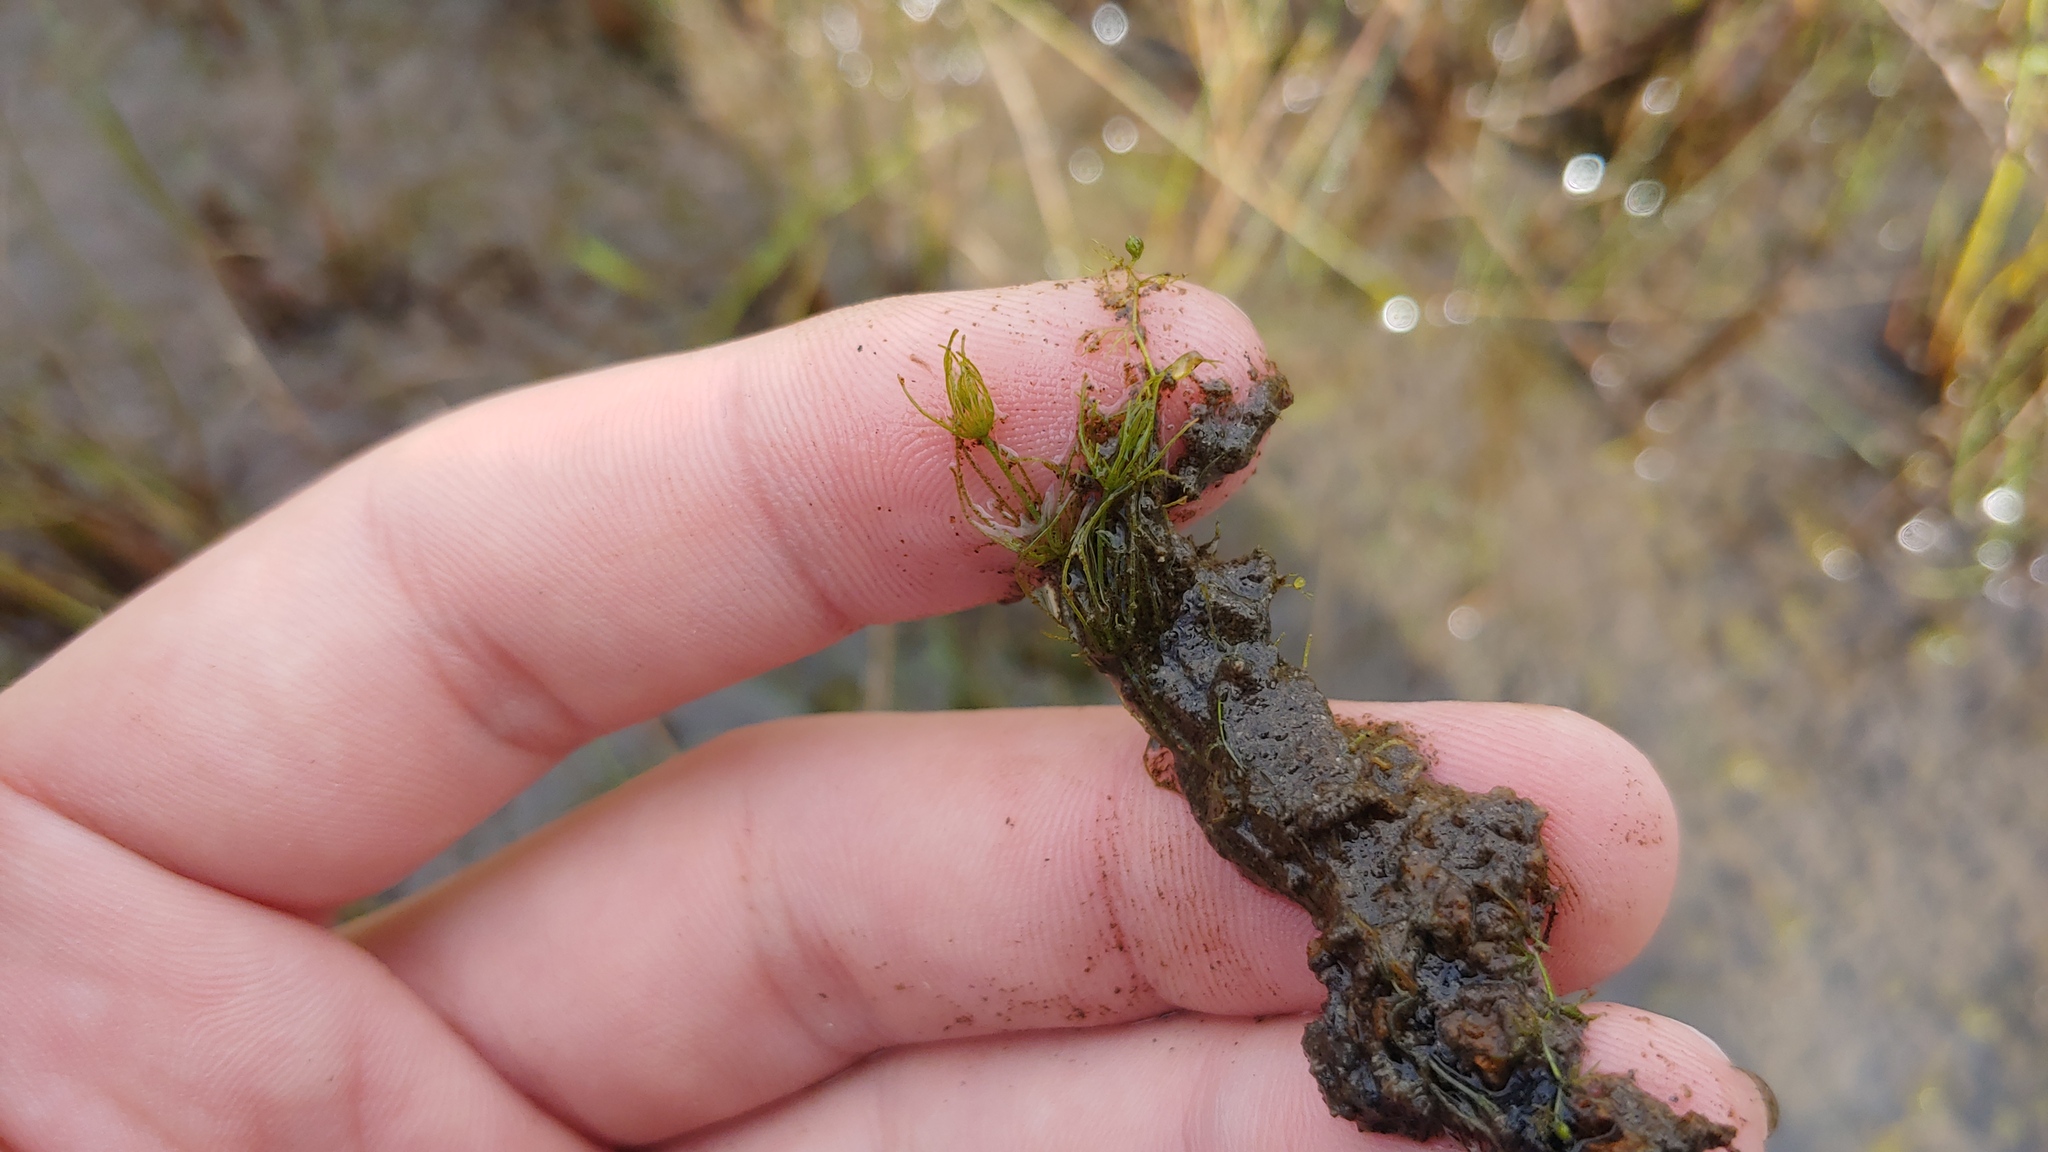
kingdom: Plantae
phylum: Charophyta
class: Charophyceae
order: Charales
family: Characeae
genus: Chara
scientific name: Chara vulgaris
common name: Common stonewort
